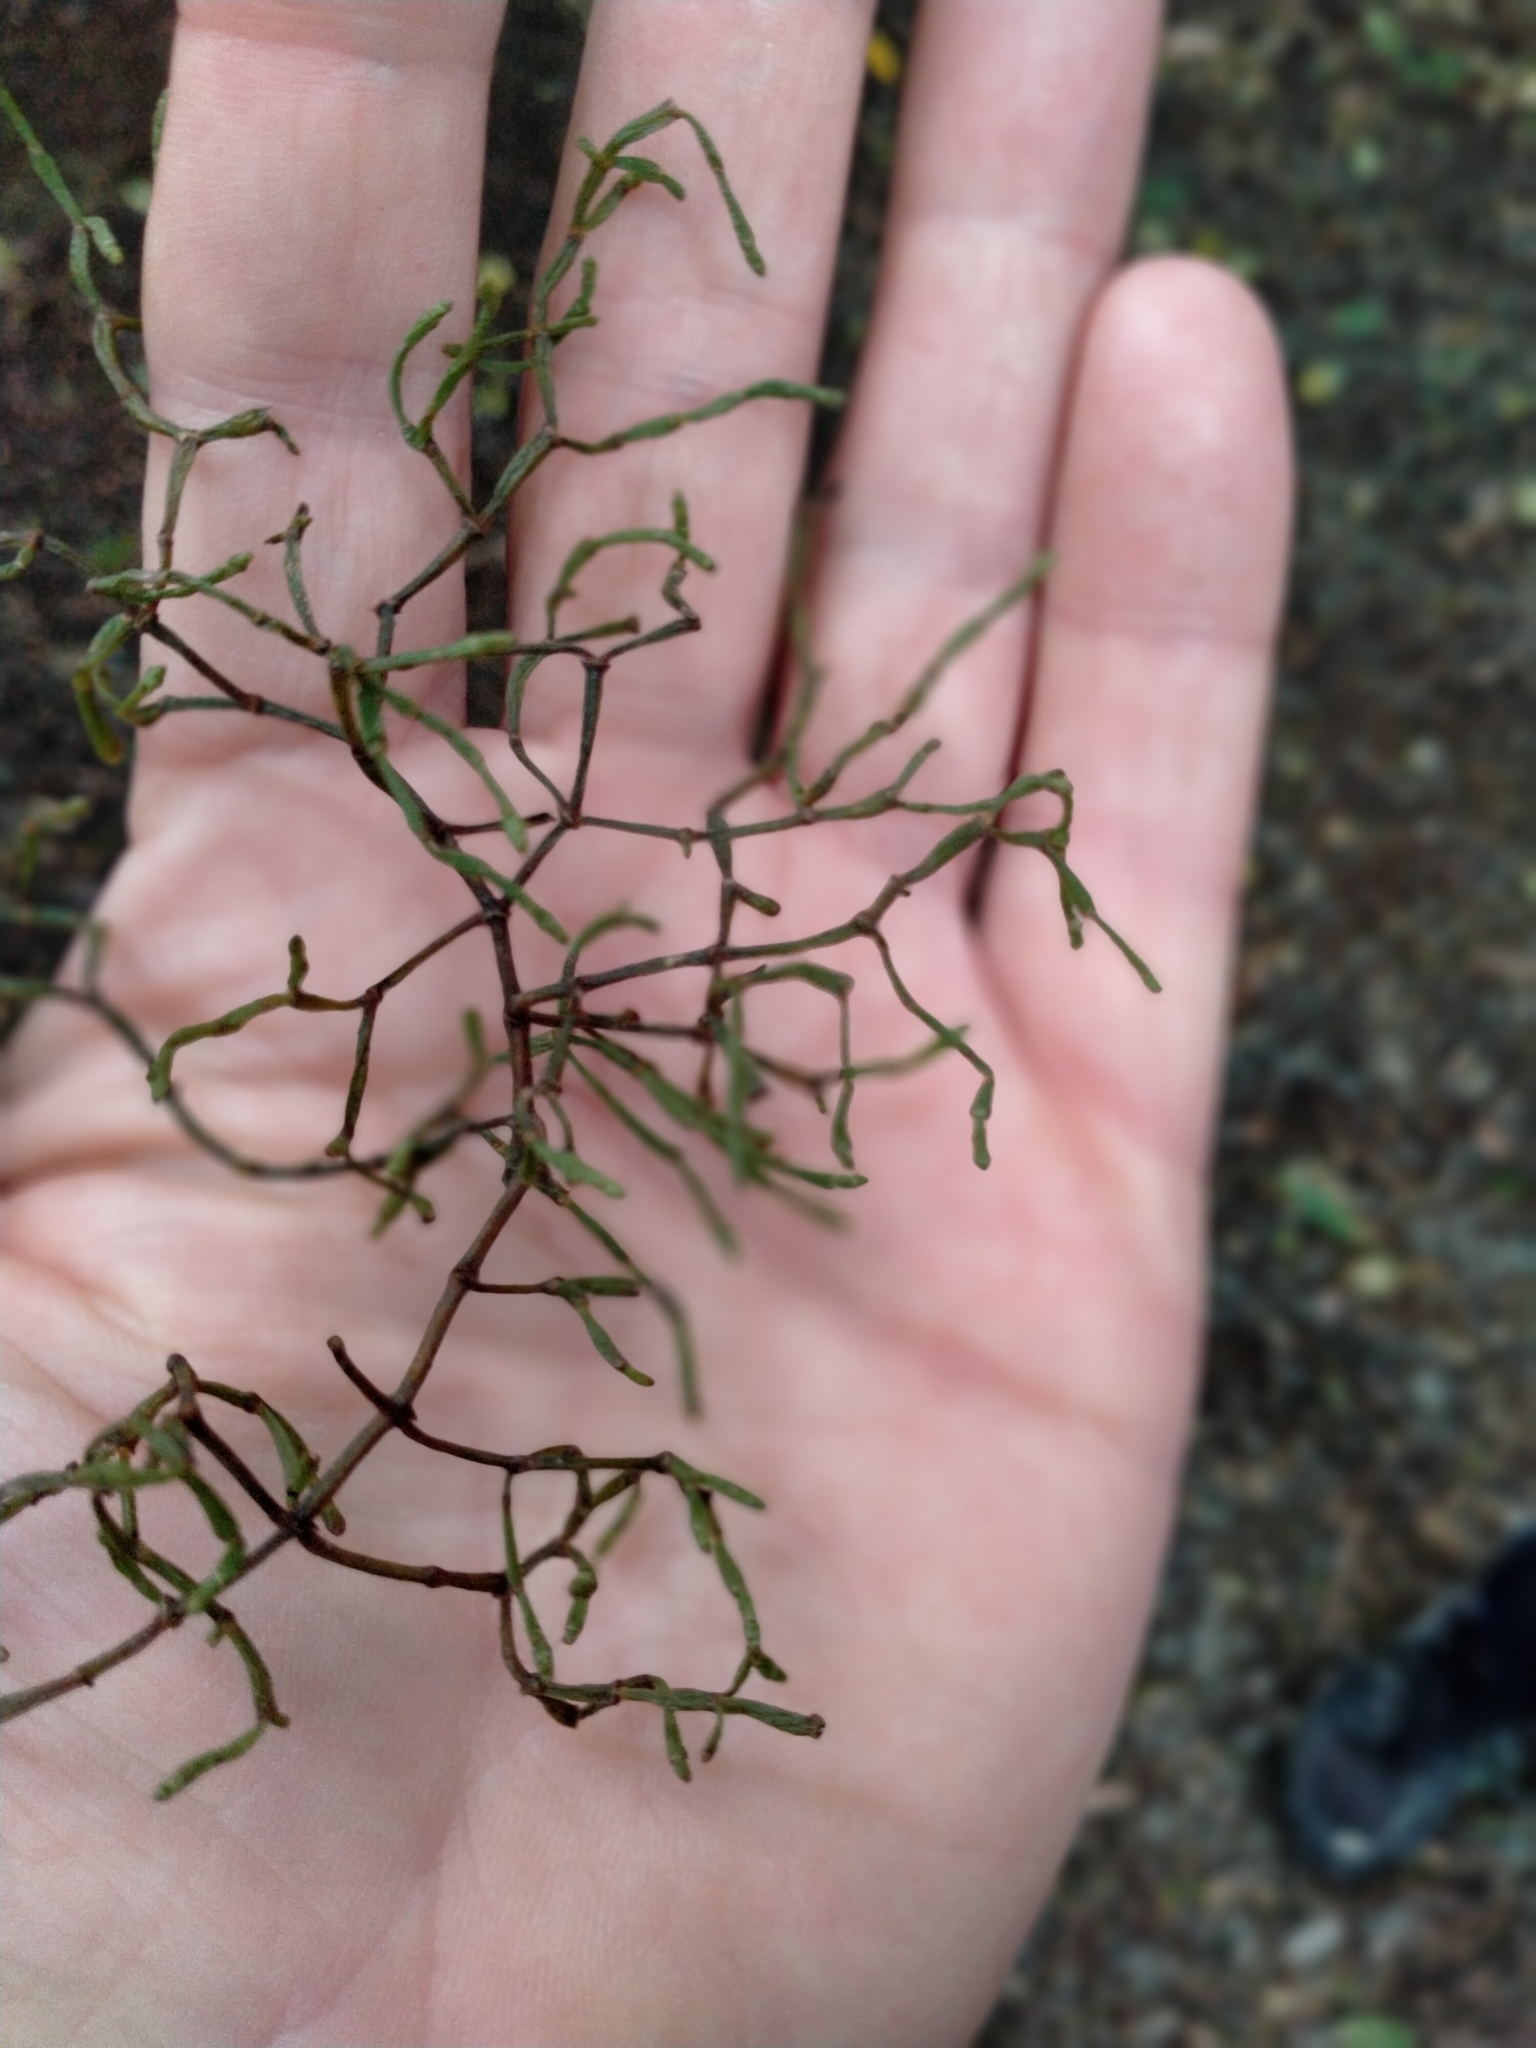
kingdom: Plantae
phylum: Tracheophyta
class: Magnoliopsida
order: Santalales
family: Viscaceae
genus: Korthalsella
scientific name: Korthalsella salicornioides
